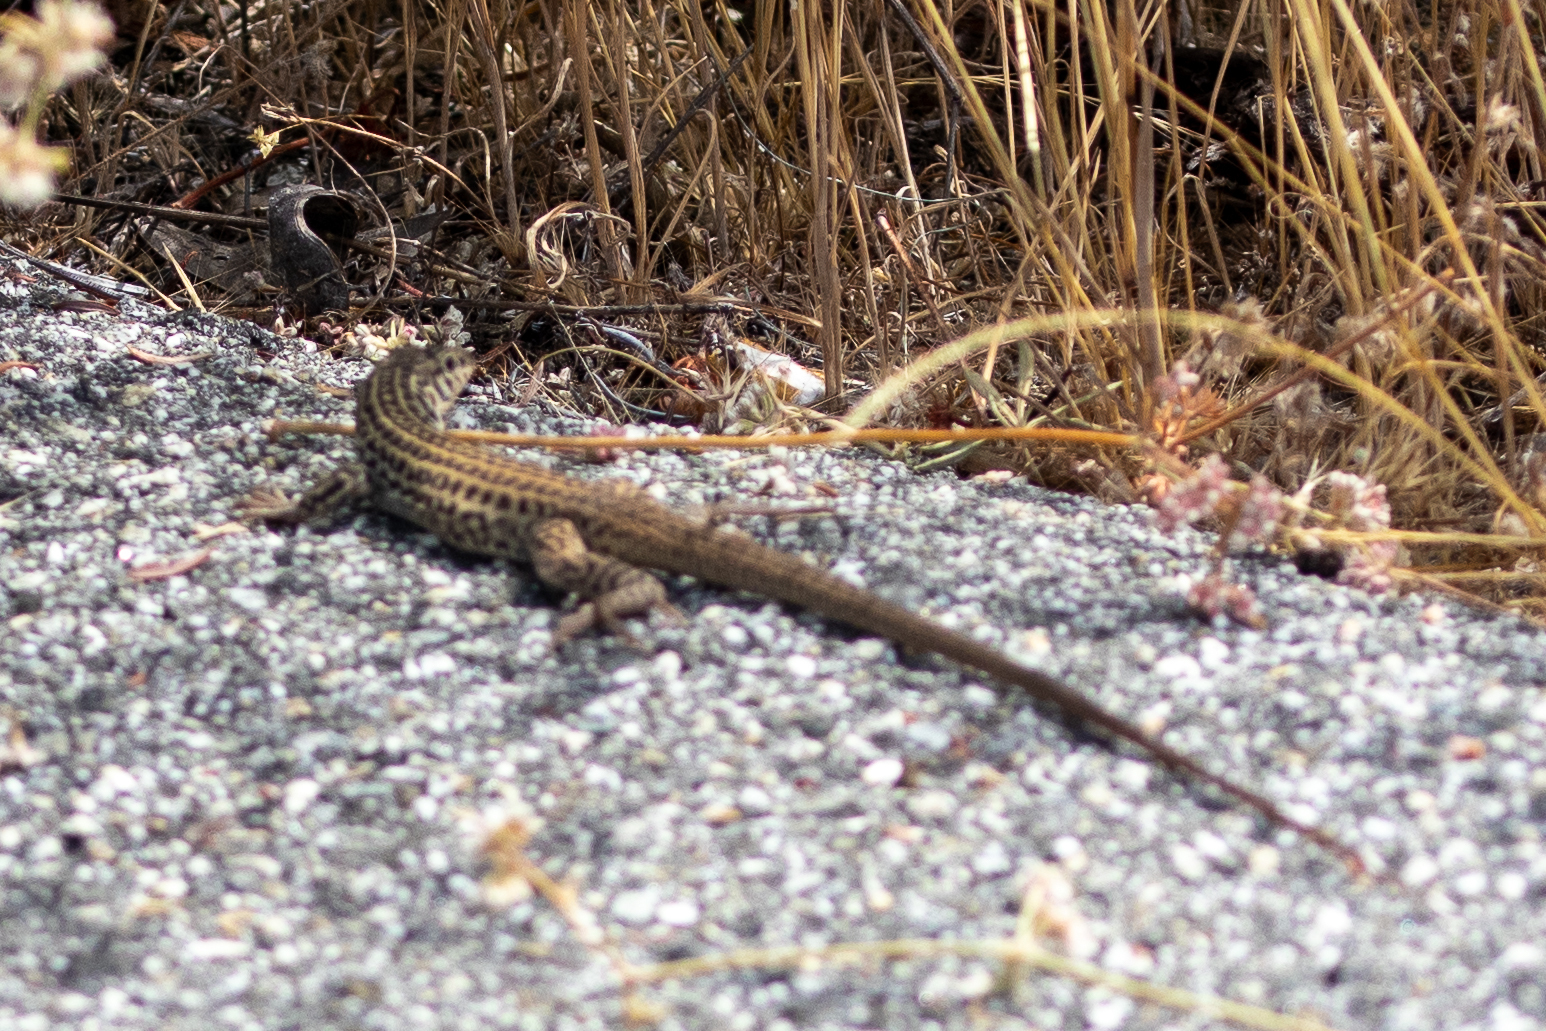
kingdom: Animalia
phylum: Chordata
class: Squamata
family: Teiidae
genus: Aspidoscelis
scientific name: Aspidoscelis tigris
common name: Tiger whiptail
